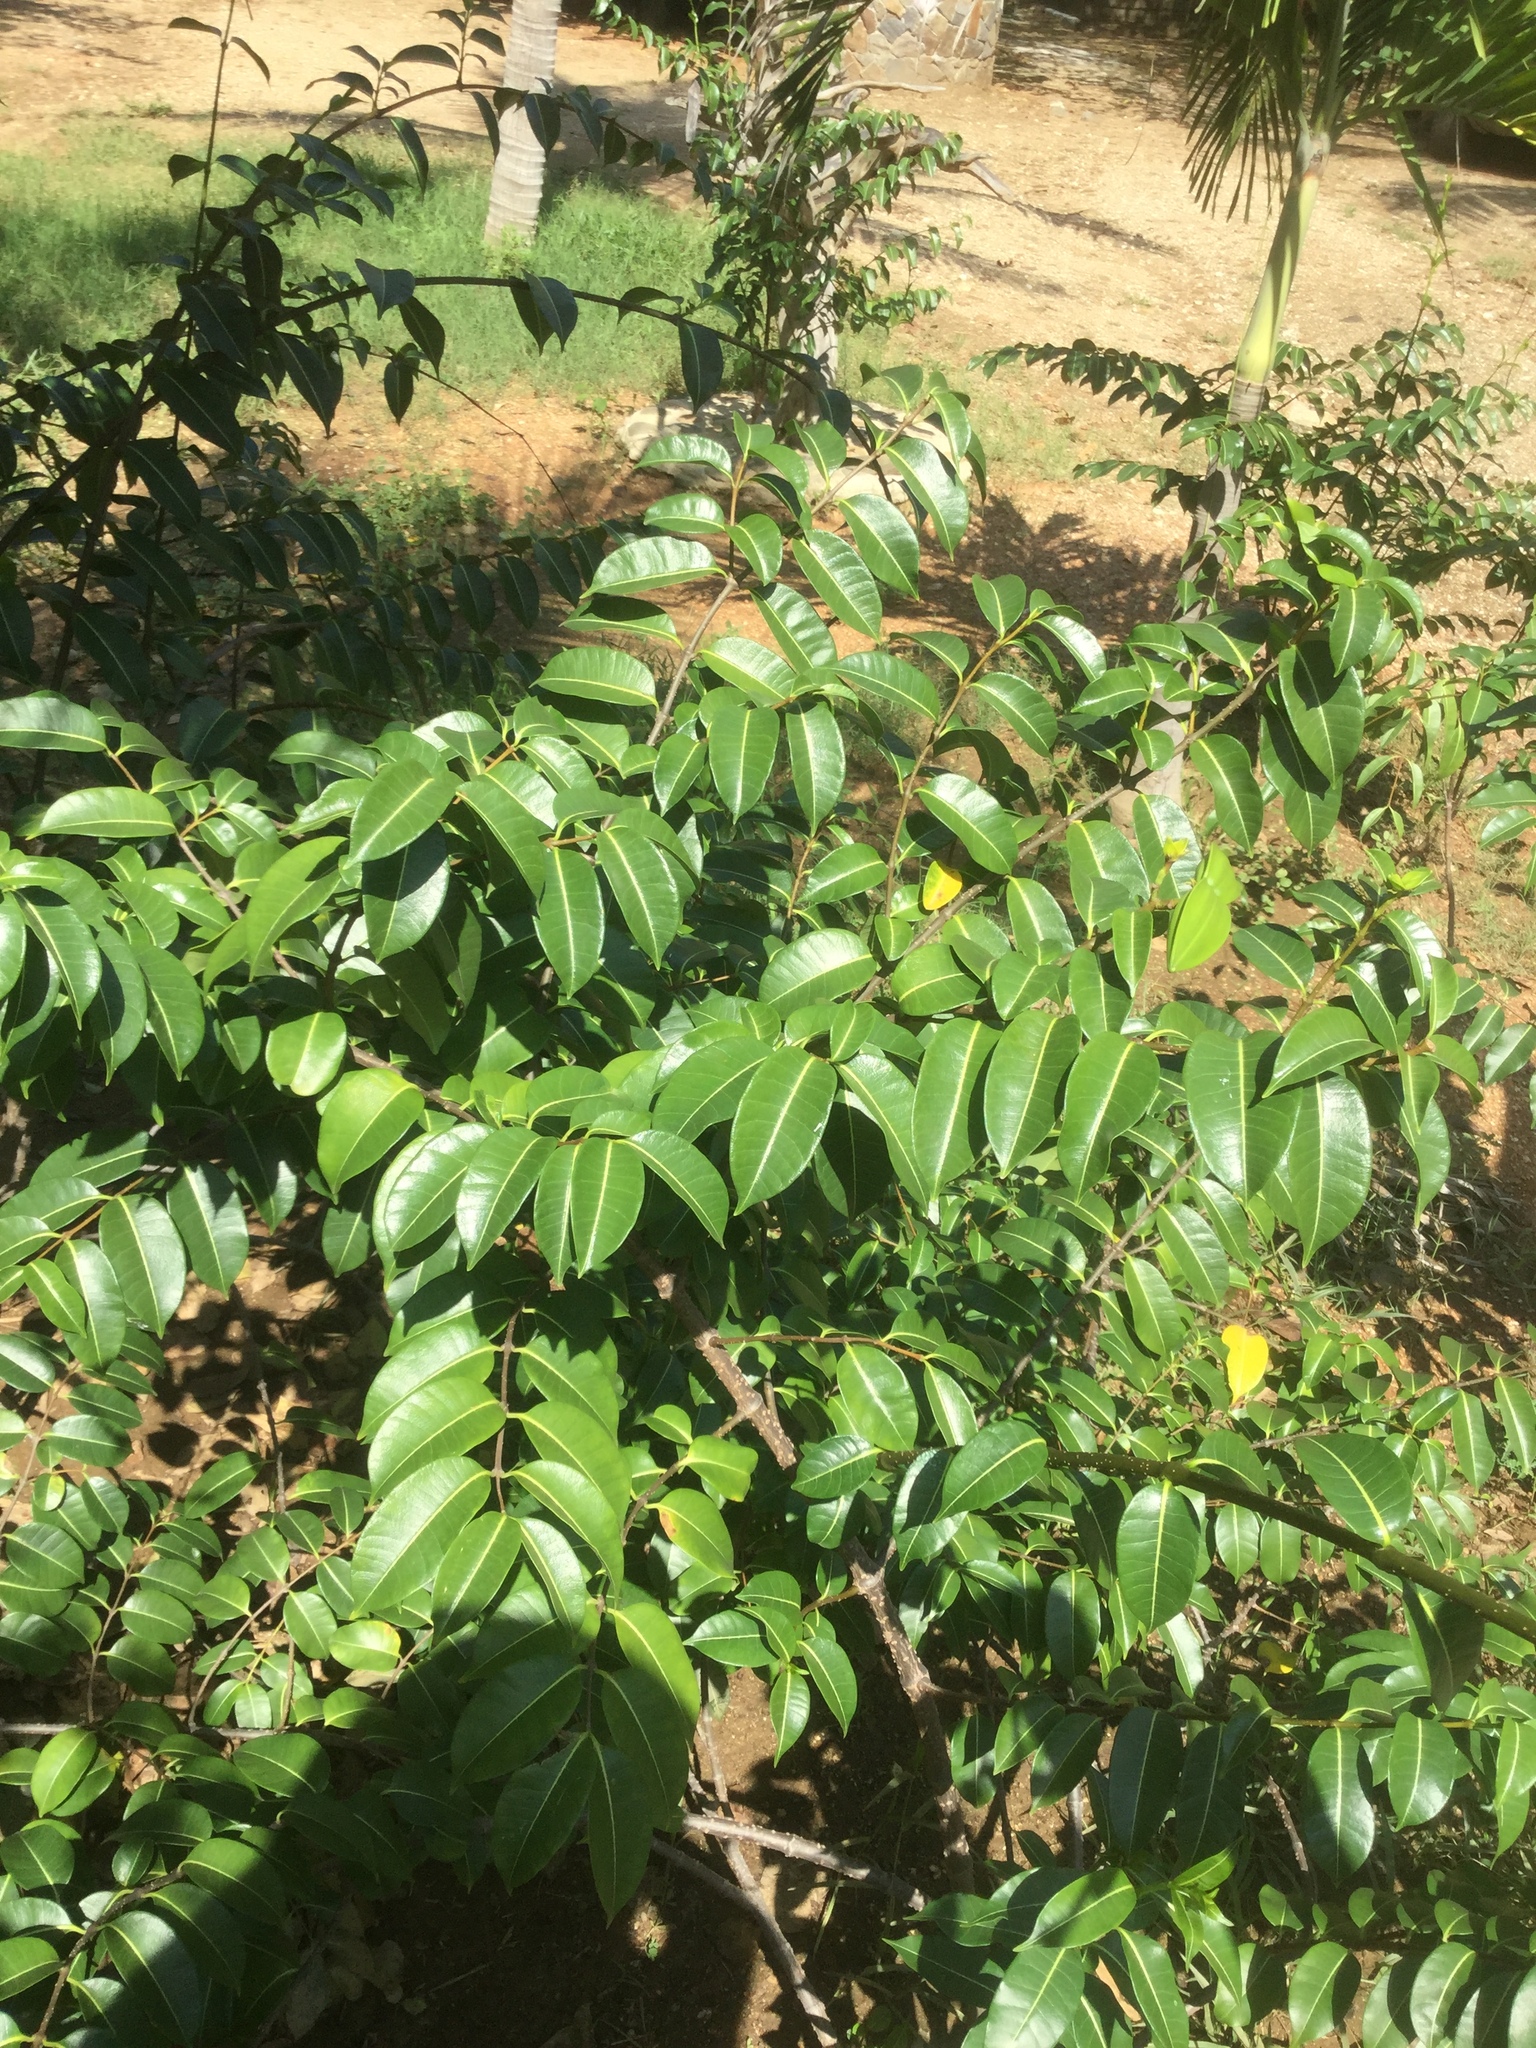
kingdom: Plantae
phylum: Tracheophyta
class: Magnoliopsida
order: Gentianales
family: Apocynaceae
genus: Cryptostegia
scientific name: Cryptostegia grandiflora
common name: Palay rubbervine
